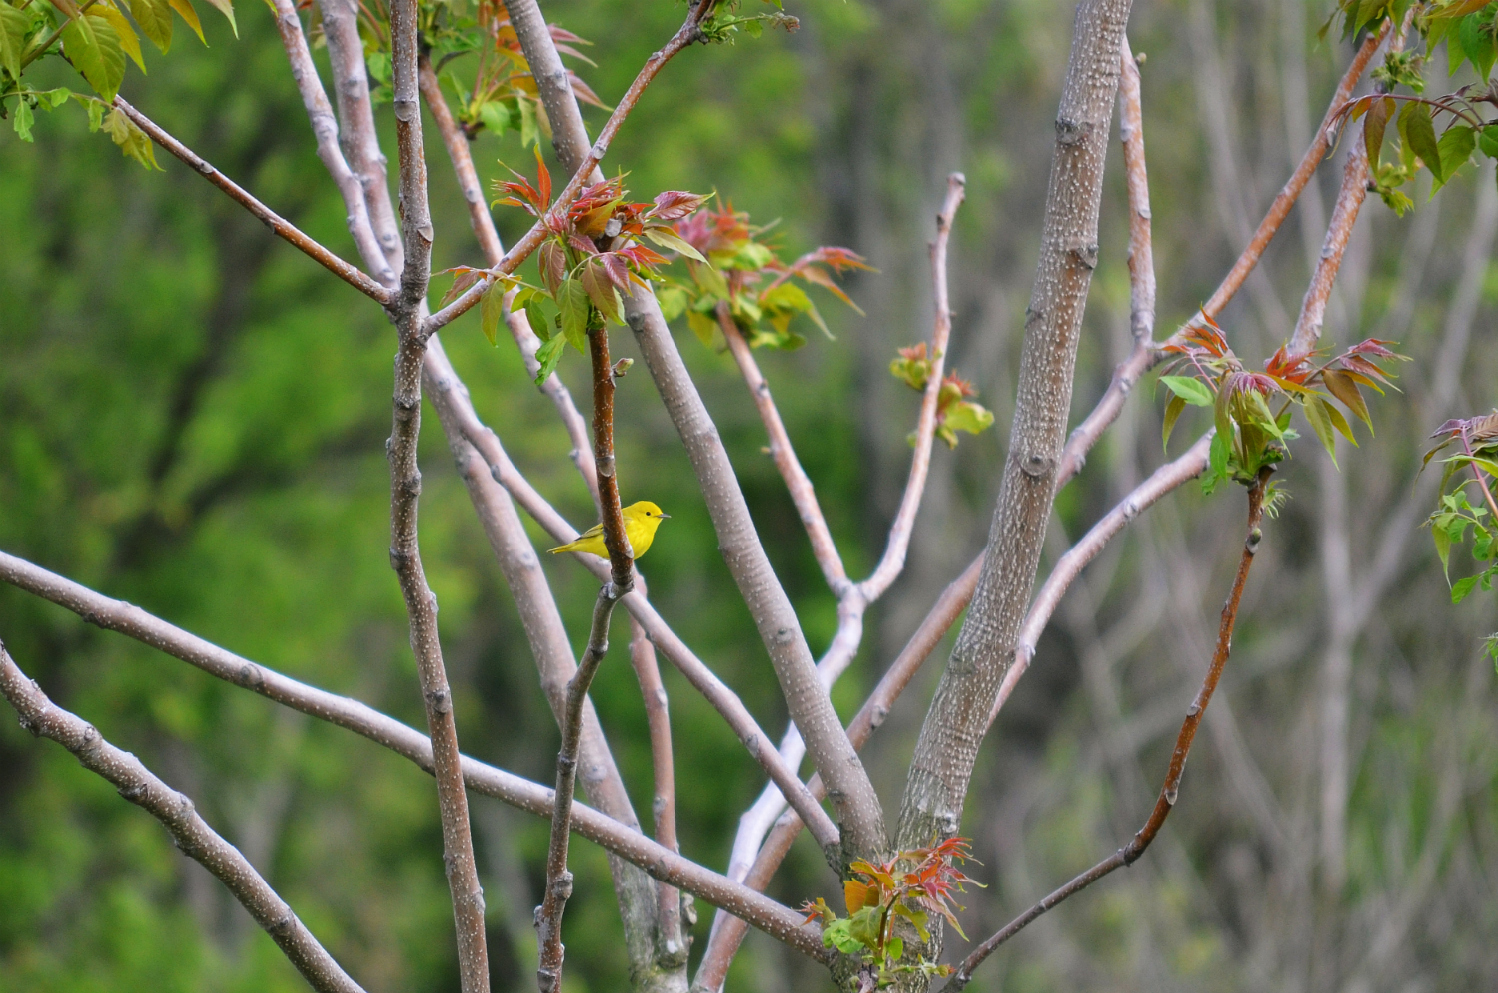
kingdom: Animalia
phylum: Chordata
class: Aves
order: Passeriformes
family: Parulidae
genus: Setophaga
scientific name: Setophaga petechia
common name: Yellow warbler
